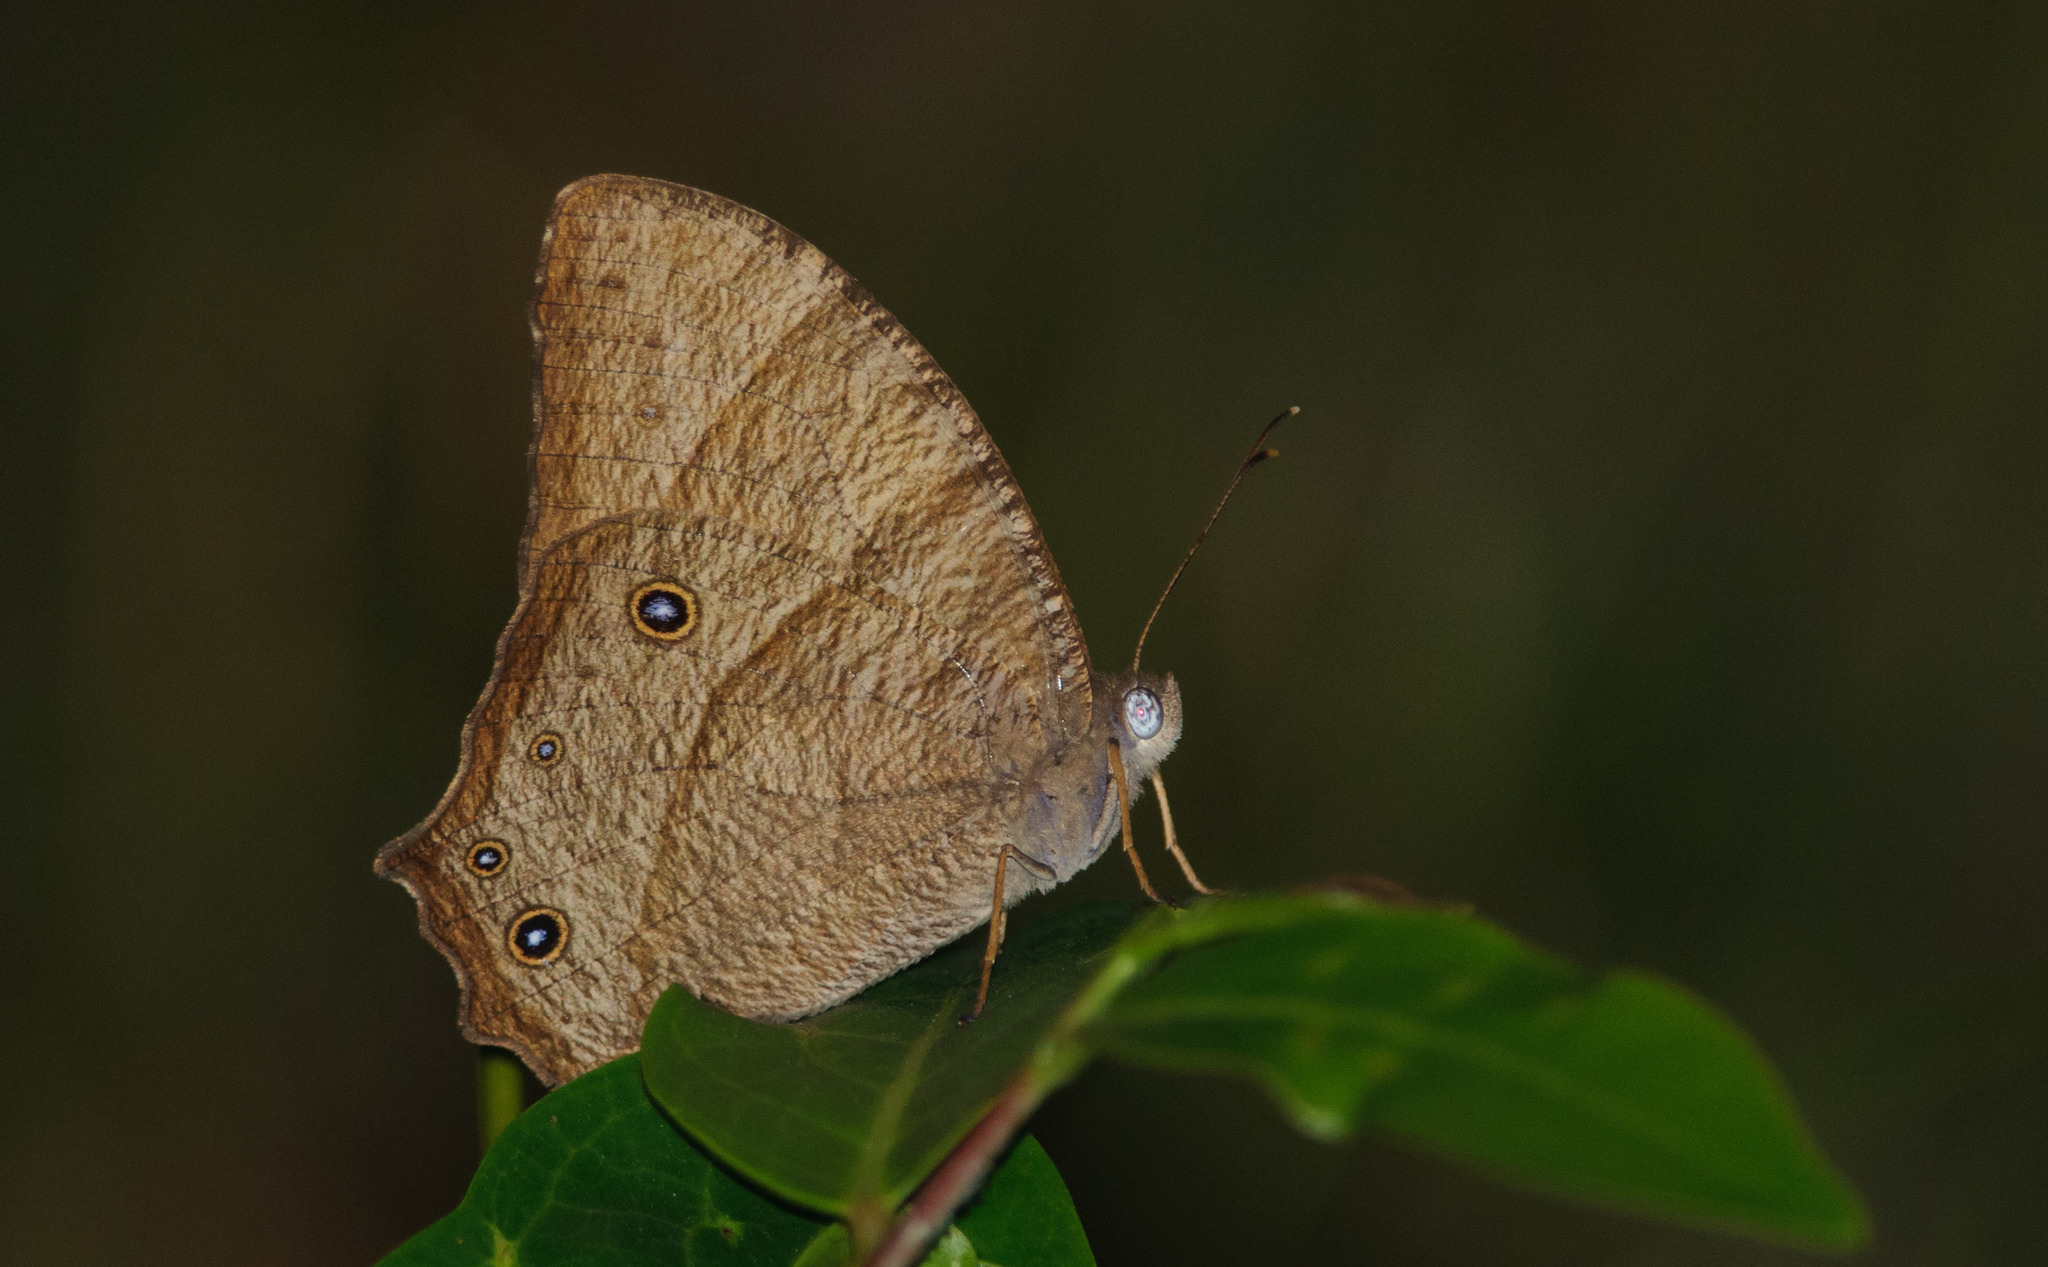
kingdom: Animalia
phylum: Arthropoda
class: Insecta
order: Lepidoptera
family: Nymphalidae
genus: Melanitis
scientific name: Melanitis leda
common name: Twilight brown
